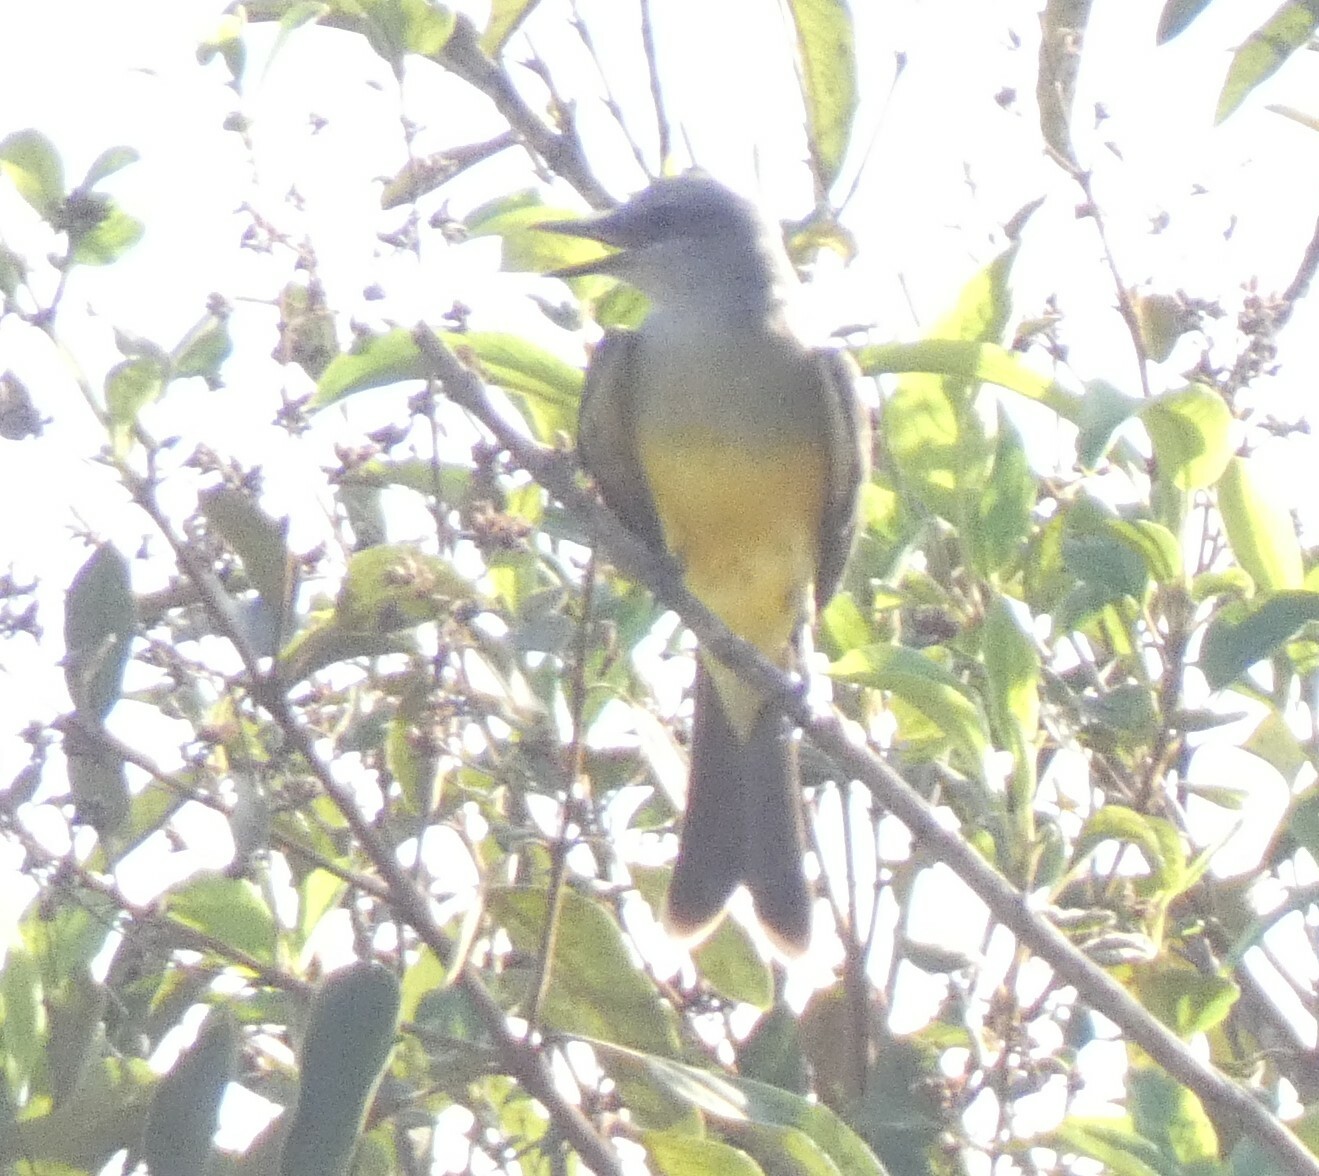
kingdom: Animalia
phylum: Chordata
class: Aves
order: Passeriformes
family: Tyrannidae
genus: Tyrannus
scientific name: Tyrannus melancholicus
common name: Tropical kingbird
